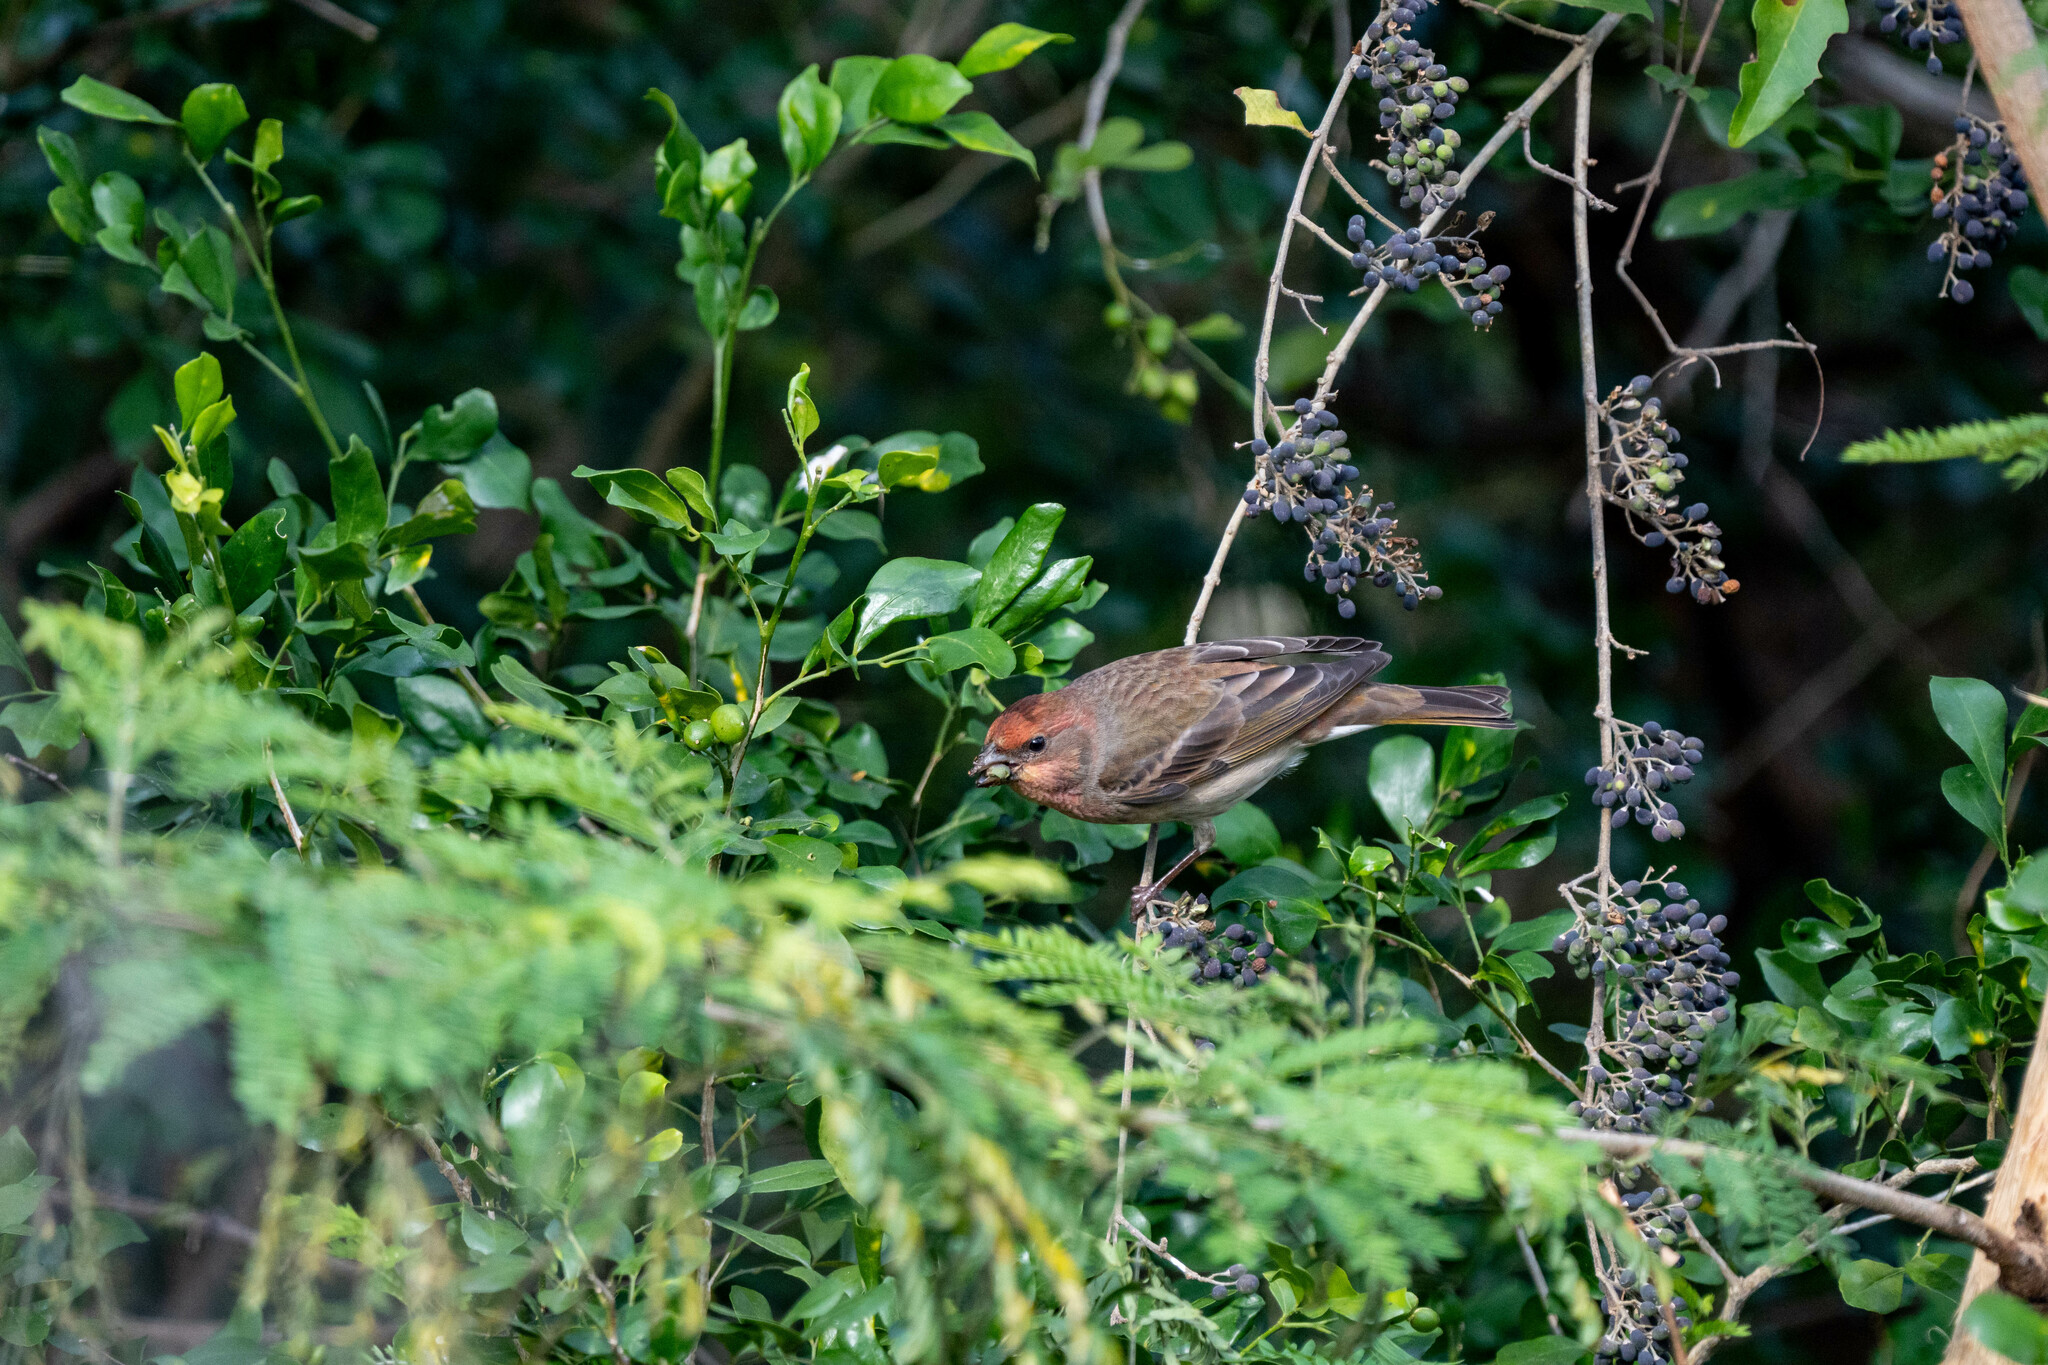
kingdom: Animalia
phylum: Chordata
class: Aves
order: Passeriformes
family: Fringillidae
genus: Carpodacus
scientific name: Carpodacus erythrinus
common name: Common rosefinch
